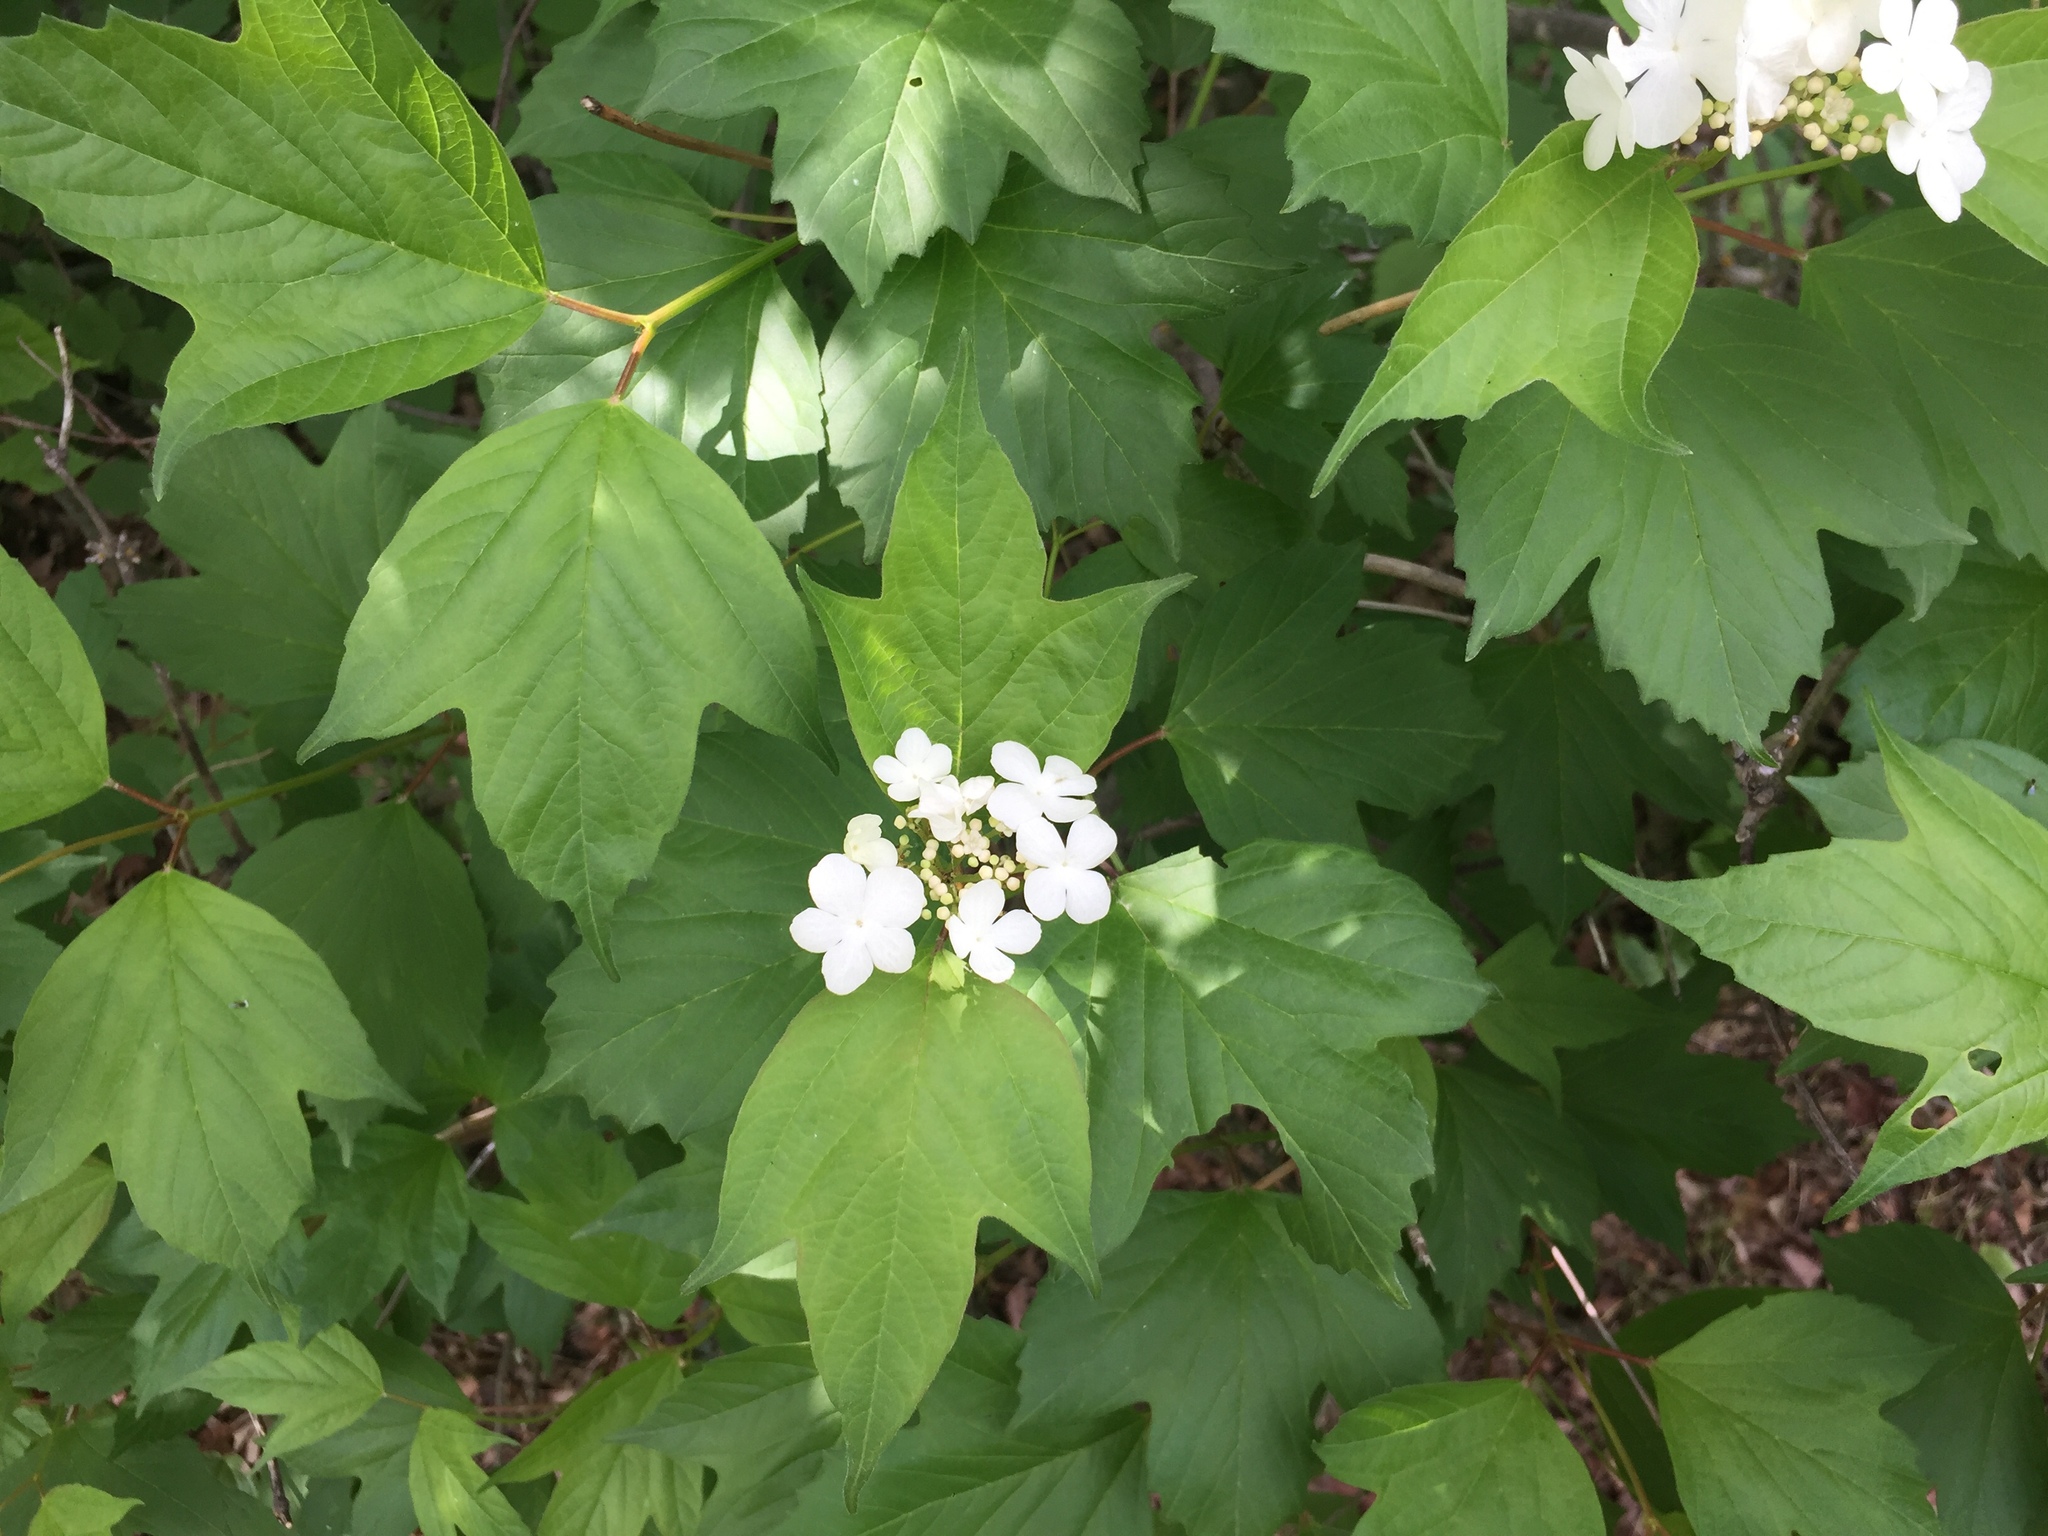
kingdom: Plantae
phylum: Tracheophyta
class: Magnoliopsida
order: Dipsacales
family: Viburnaceae
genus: Viburnum
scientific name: Viburnum trilobum
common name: American cranberrybush
